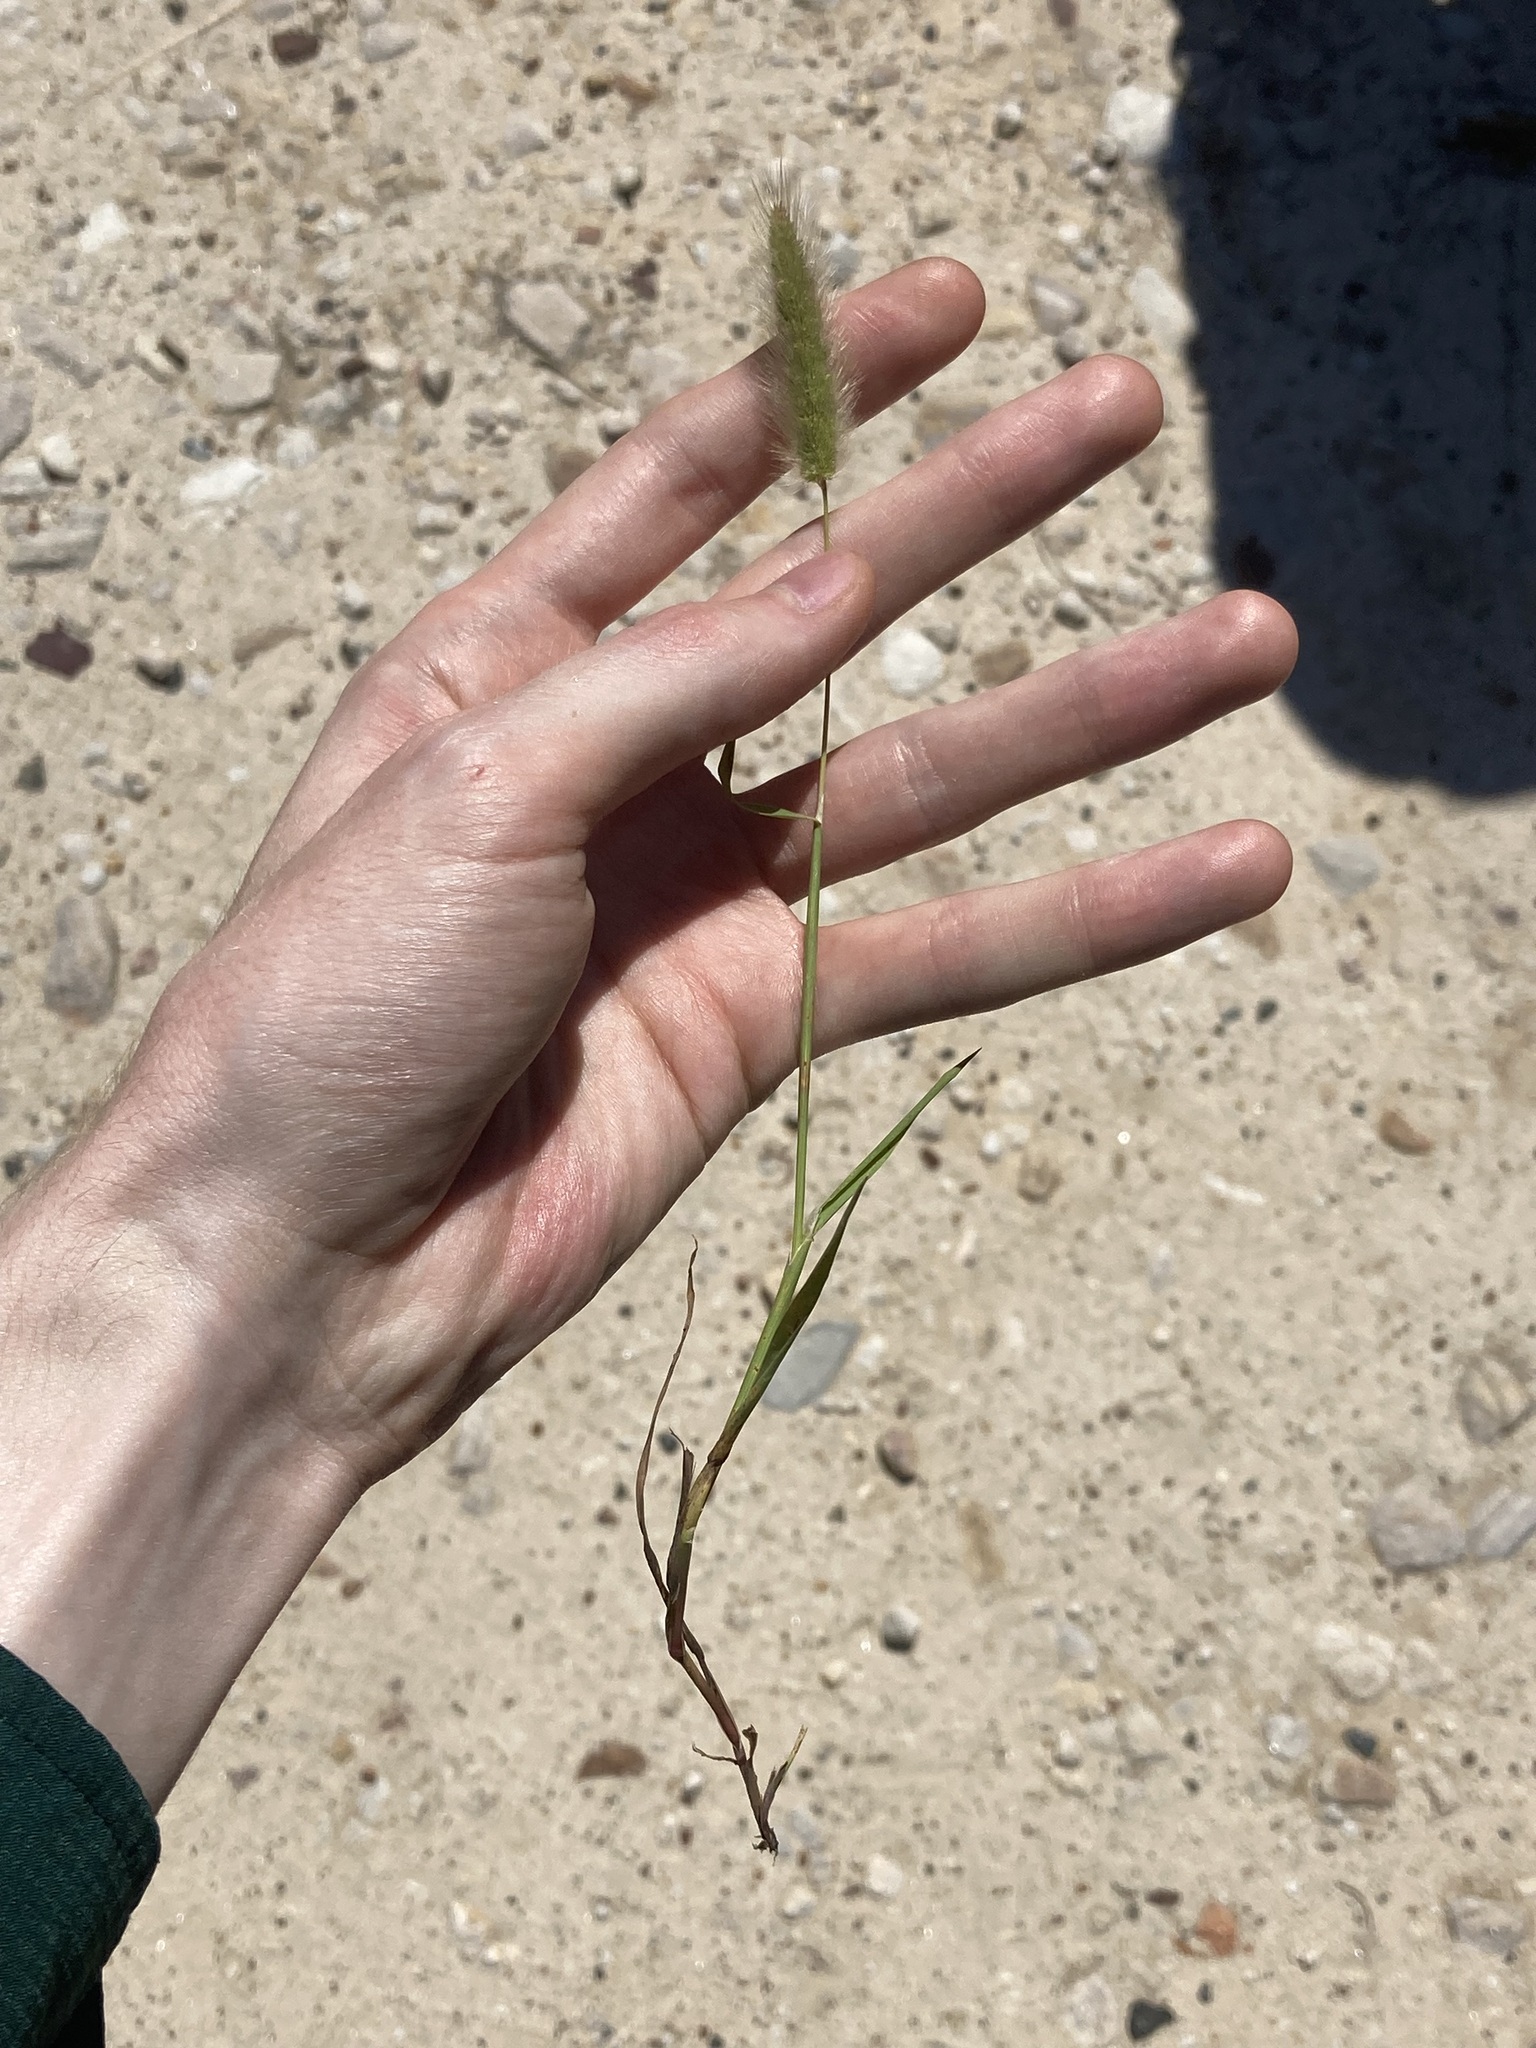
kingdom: Plantae
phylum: Tracheophyta
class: Liliopsida
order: Poales
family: Poaceae
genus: Polypogon
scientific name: Polypogon monspeliensis
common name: Annual rabbitsfoot grass
